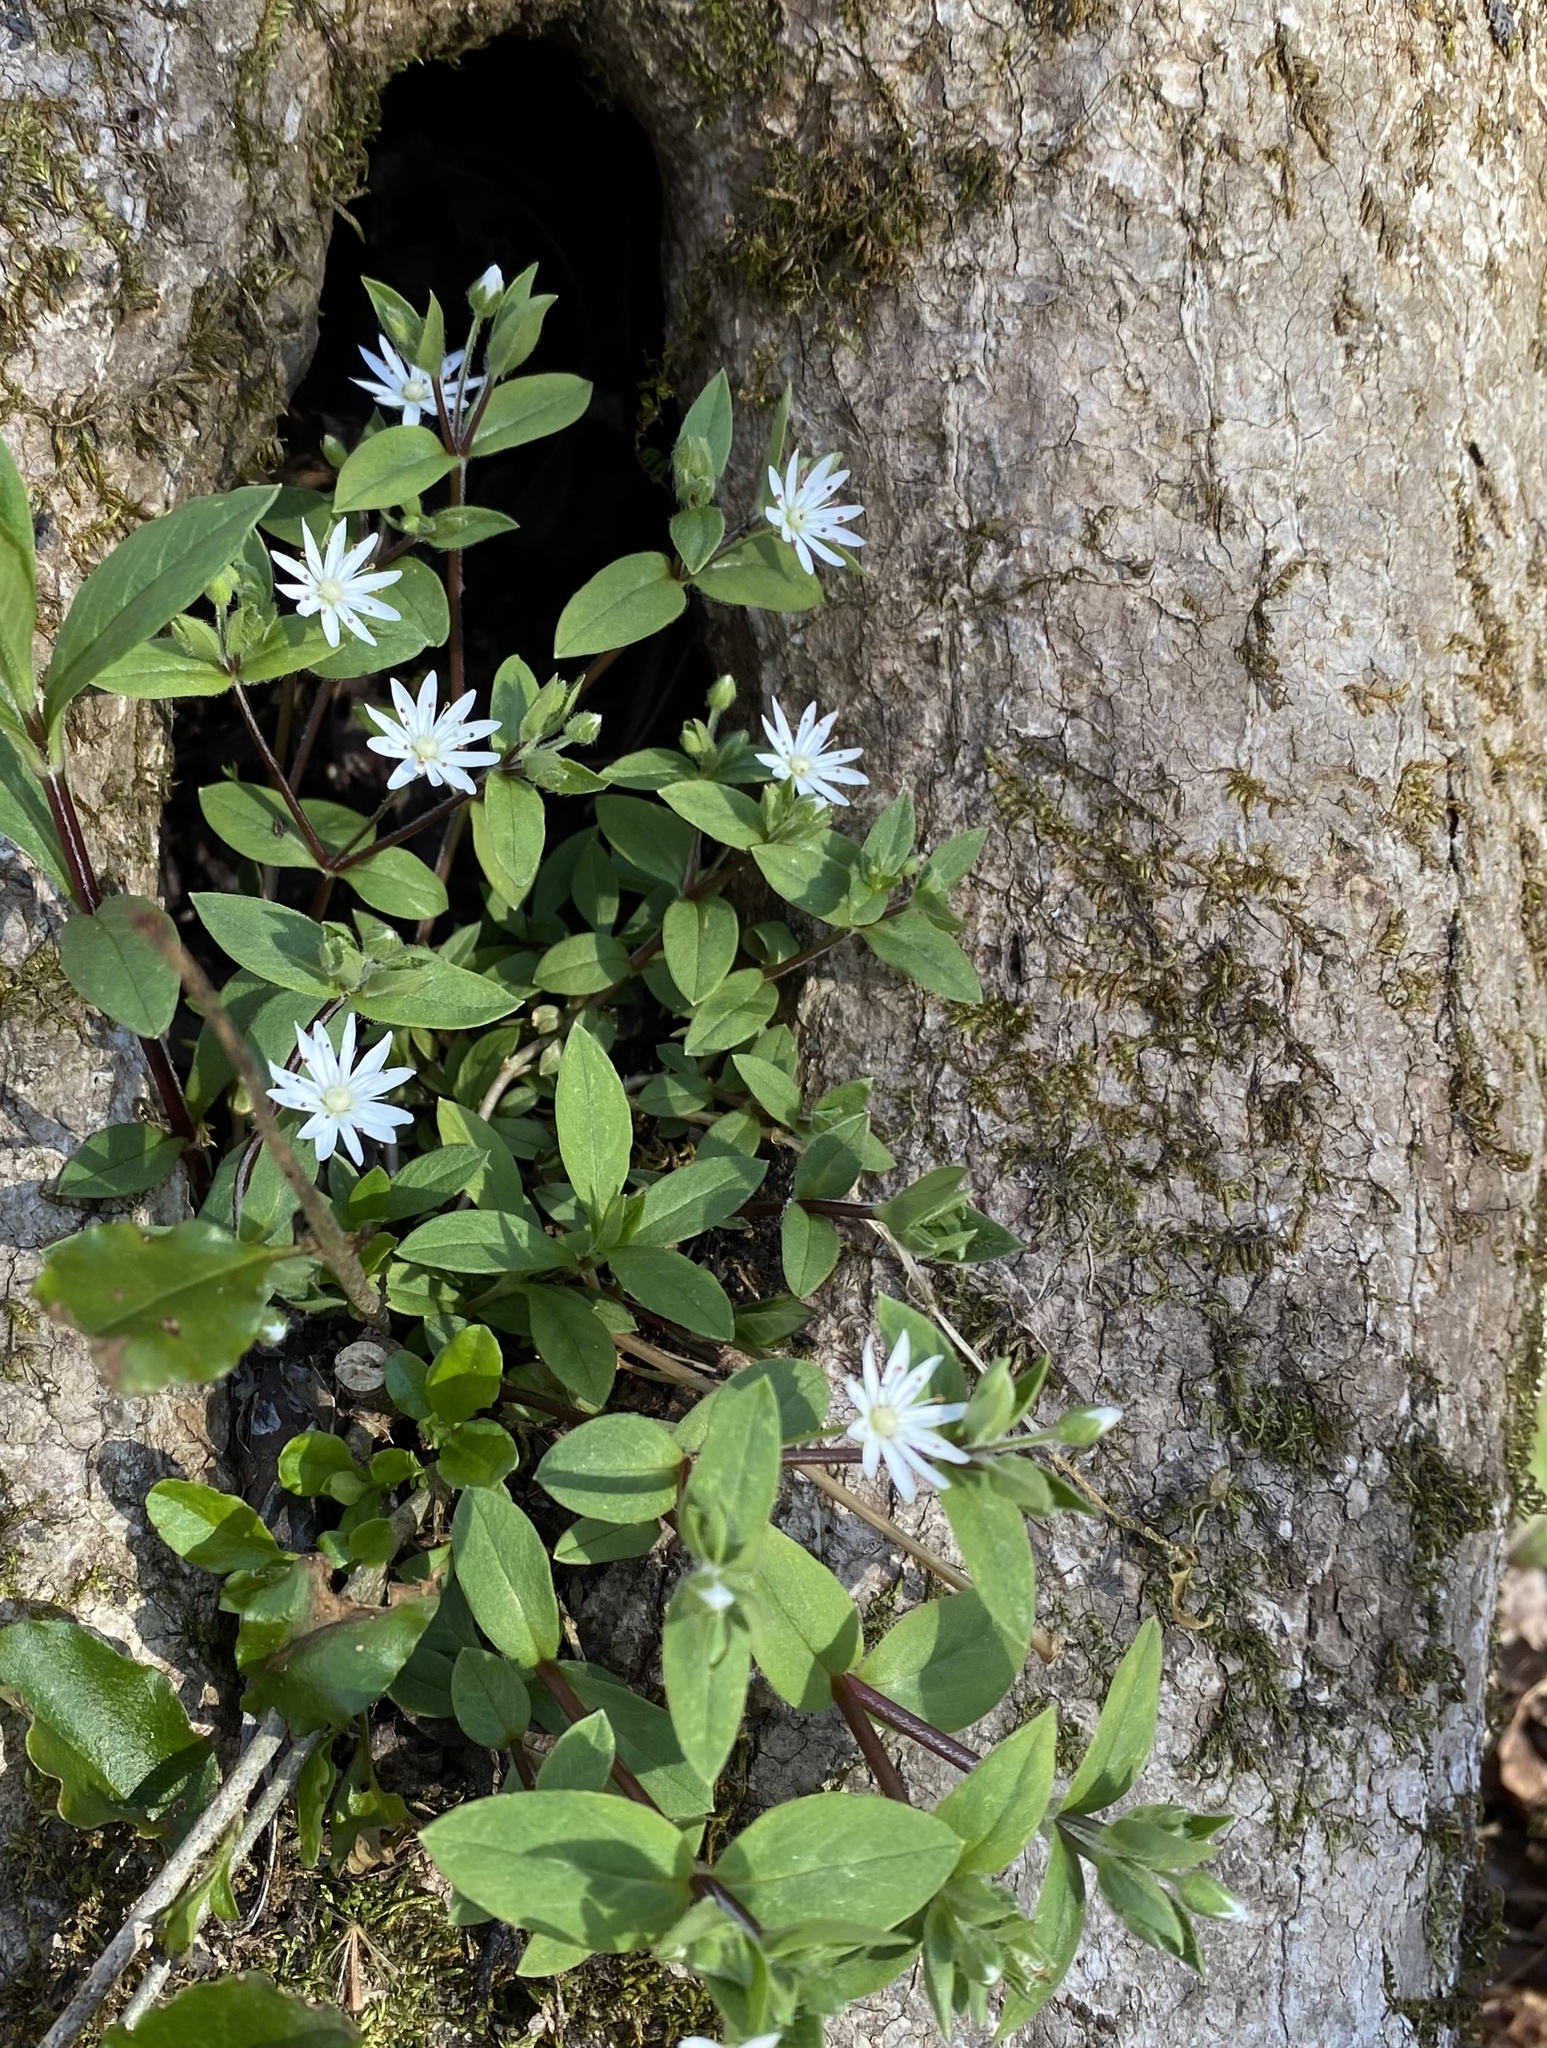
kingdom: Plantae
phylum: Tracheophyta
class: Magnoliopsida
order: Caryophyllales
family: Caryophyllaceae
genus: Stellaria
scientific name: Stellaria pubera
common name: Star chickweed
